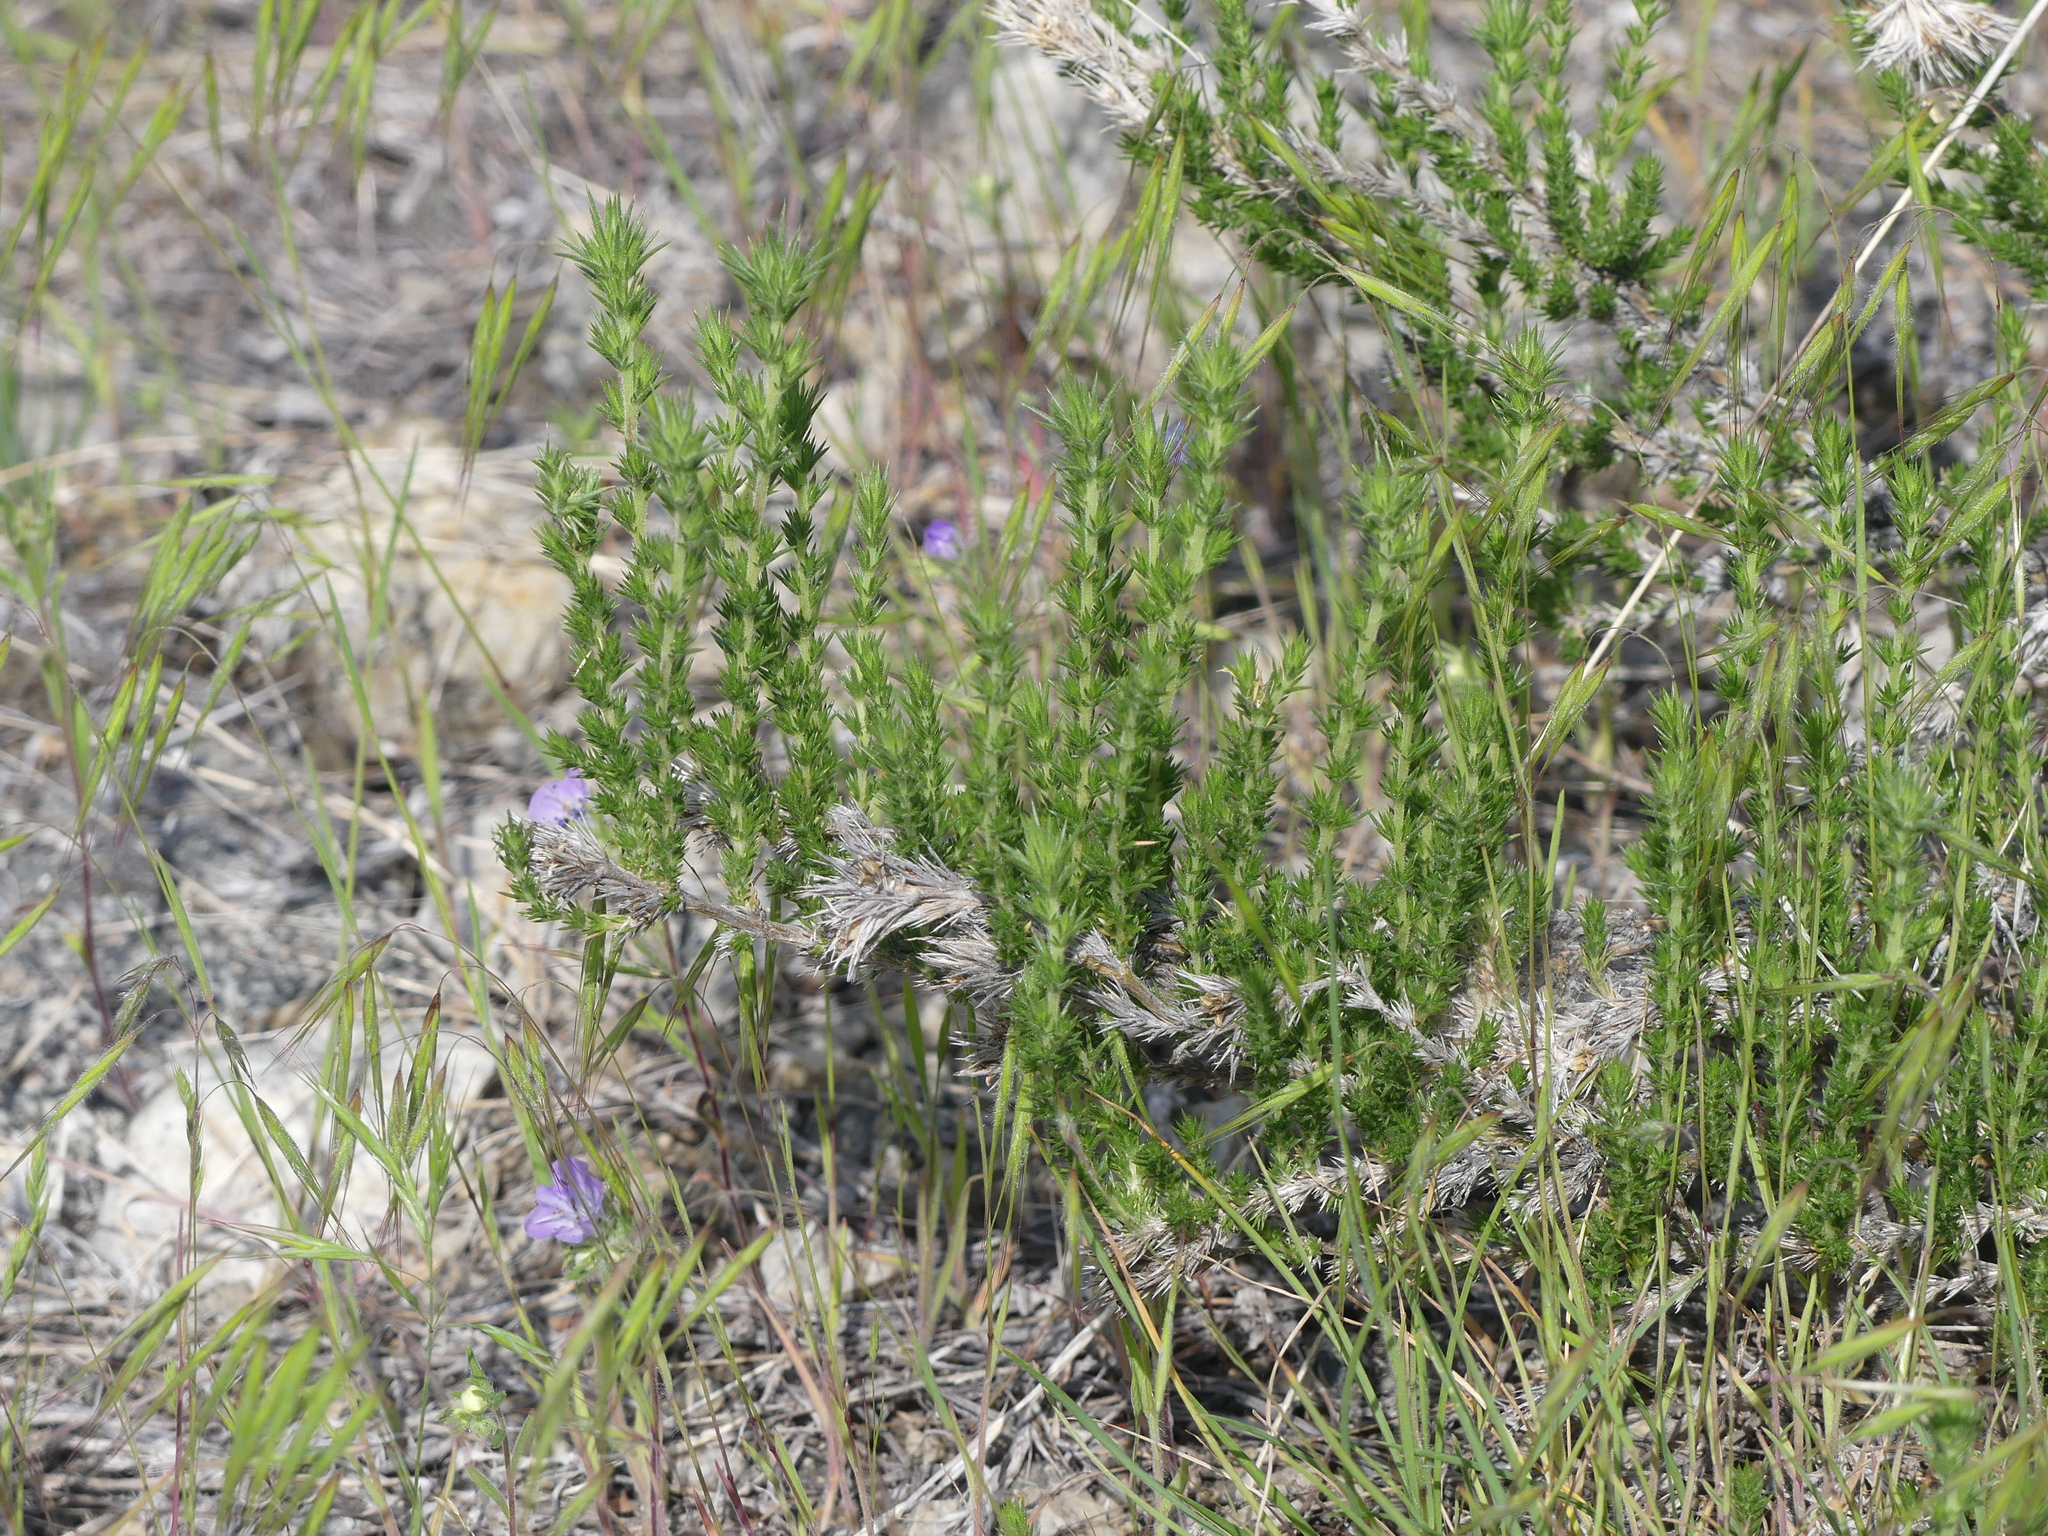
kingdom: Plantae
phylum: Tracheophyta
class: Magnoliopsida
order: Ericales
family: Polemoniaceae
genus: Linanthus
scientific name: Linanthus pungens
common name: Granite prickly phlox
